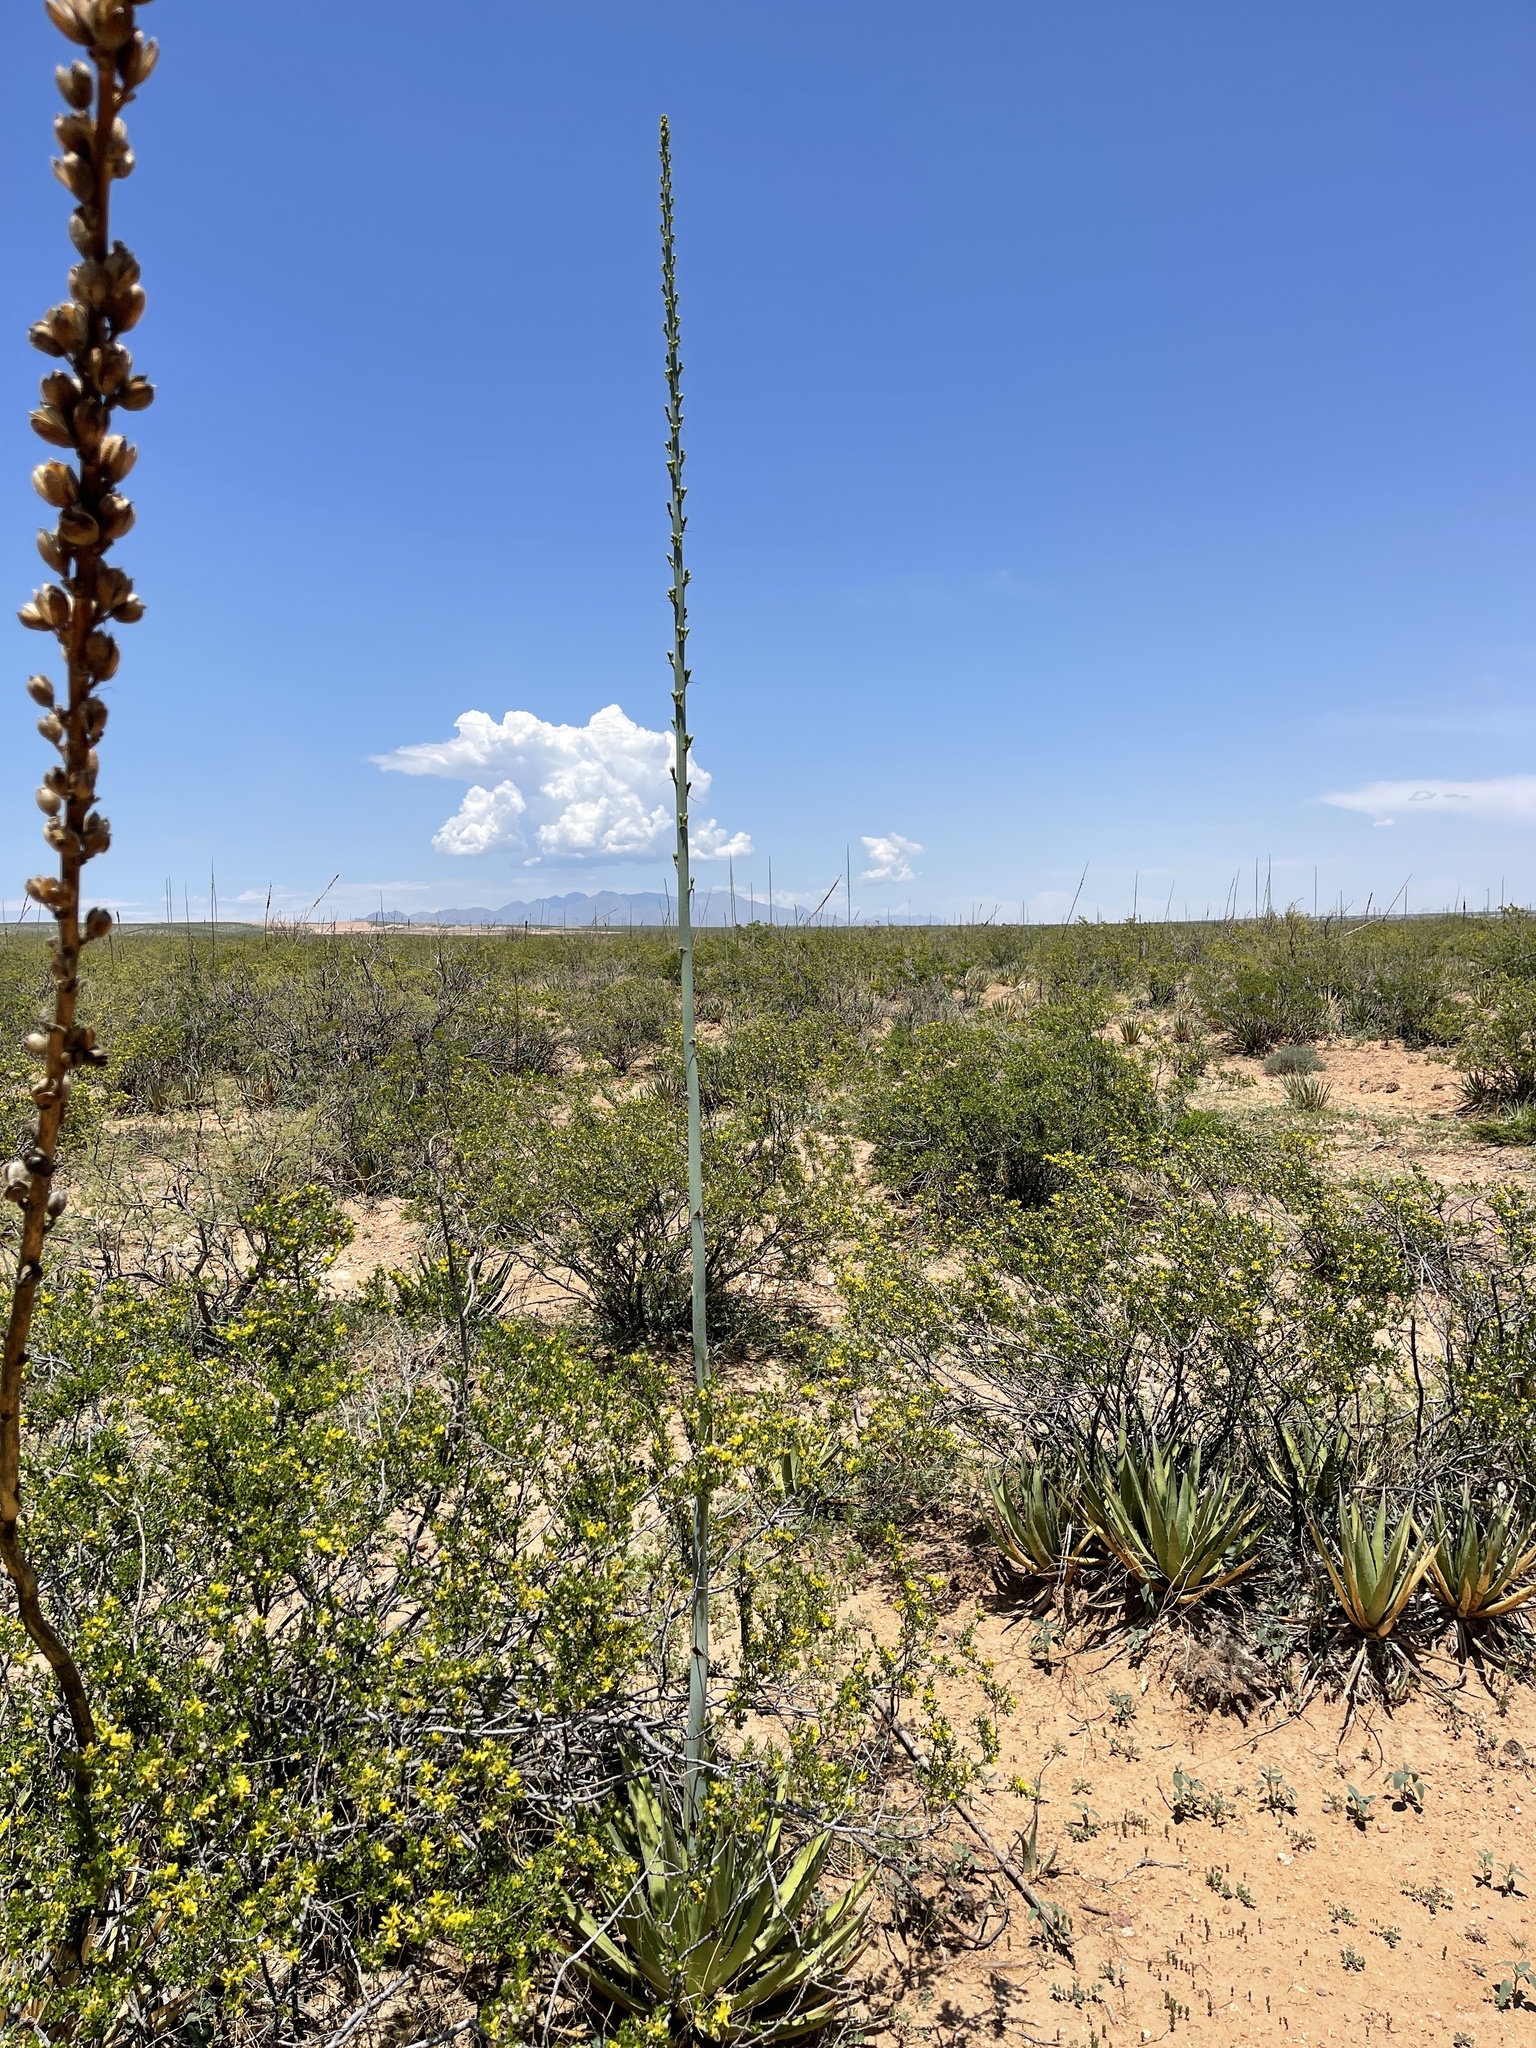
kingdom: Plantae
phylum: Tracheophyta
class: Liliopsida
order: Asparagales
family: Asparagaceae
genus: Agave
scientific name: Agave lechuguilla
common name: Lecheguilla agave
